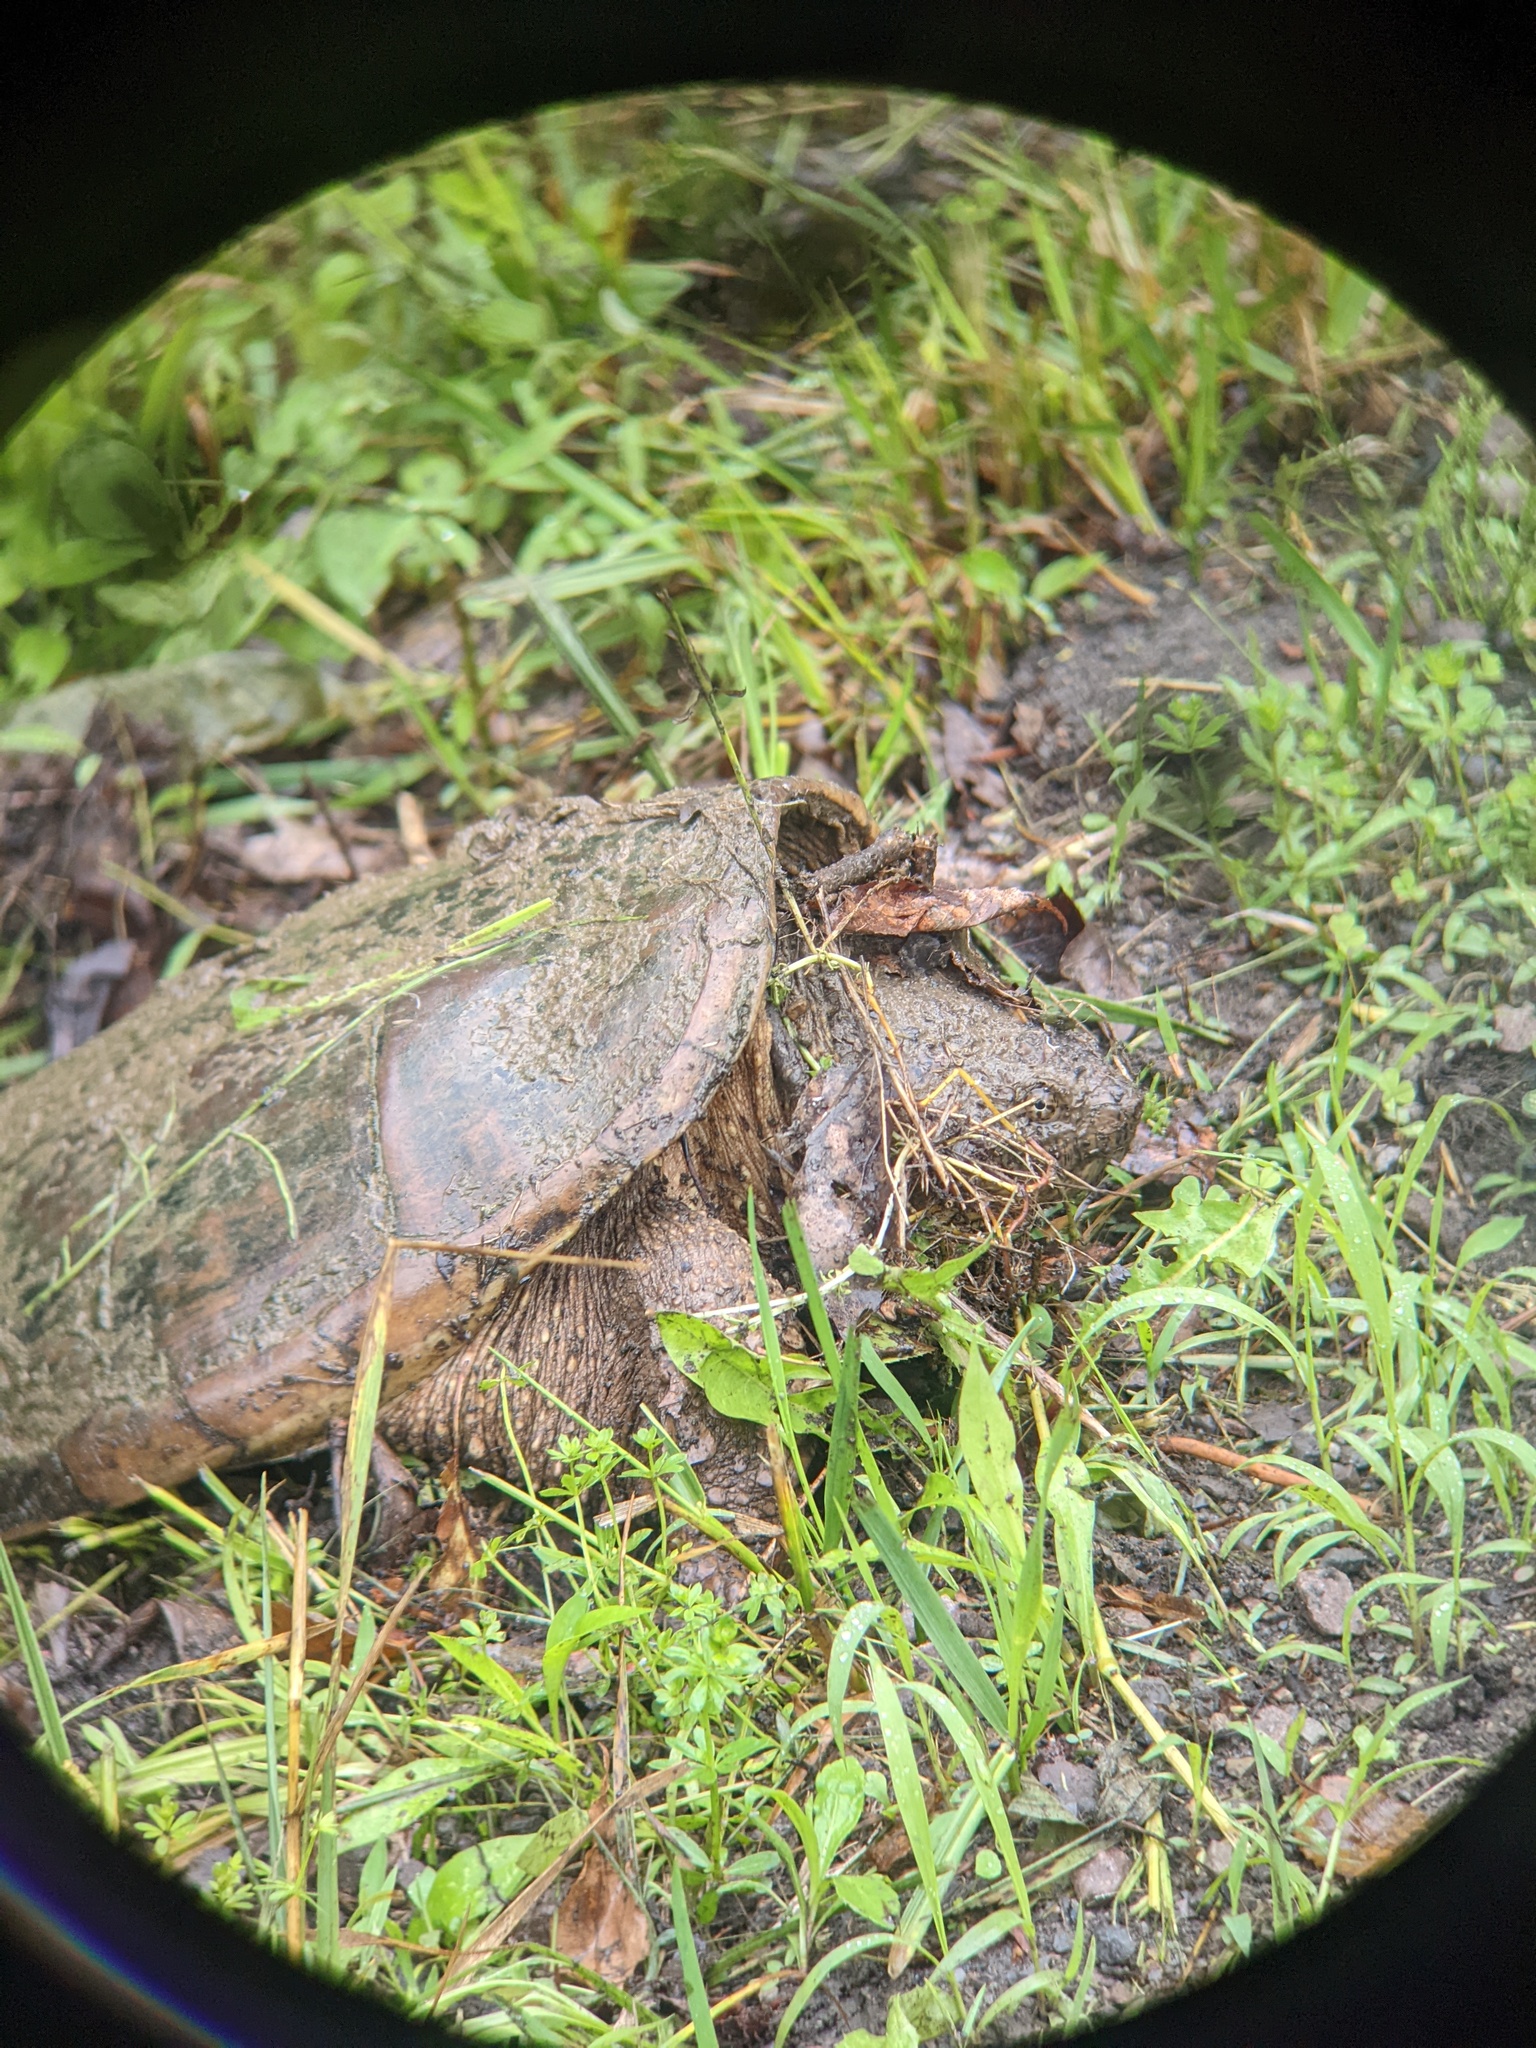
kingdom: Animalia
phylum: Chordata
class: Testudines
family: Chelydridae
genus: Chelydra
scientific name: Chelydra serpentina
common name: Common snapping turtle
